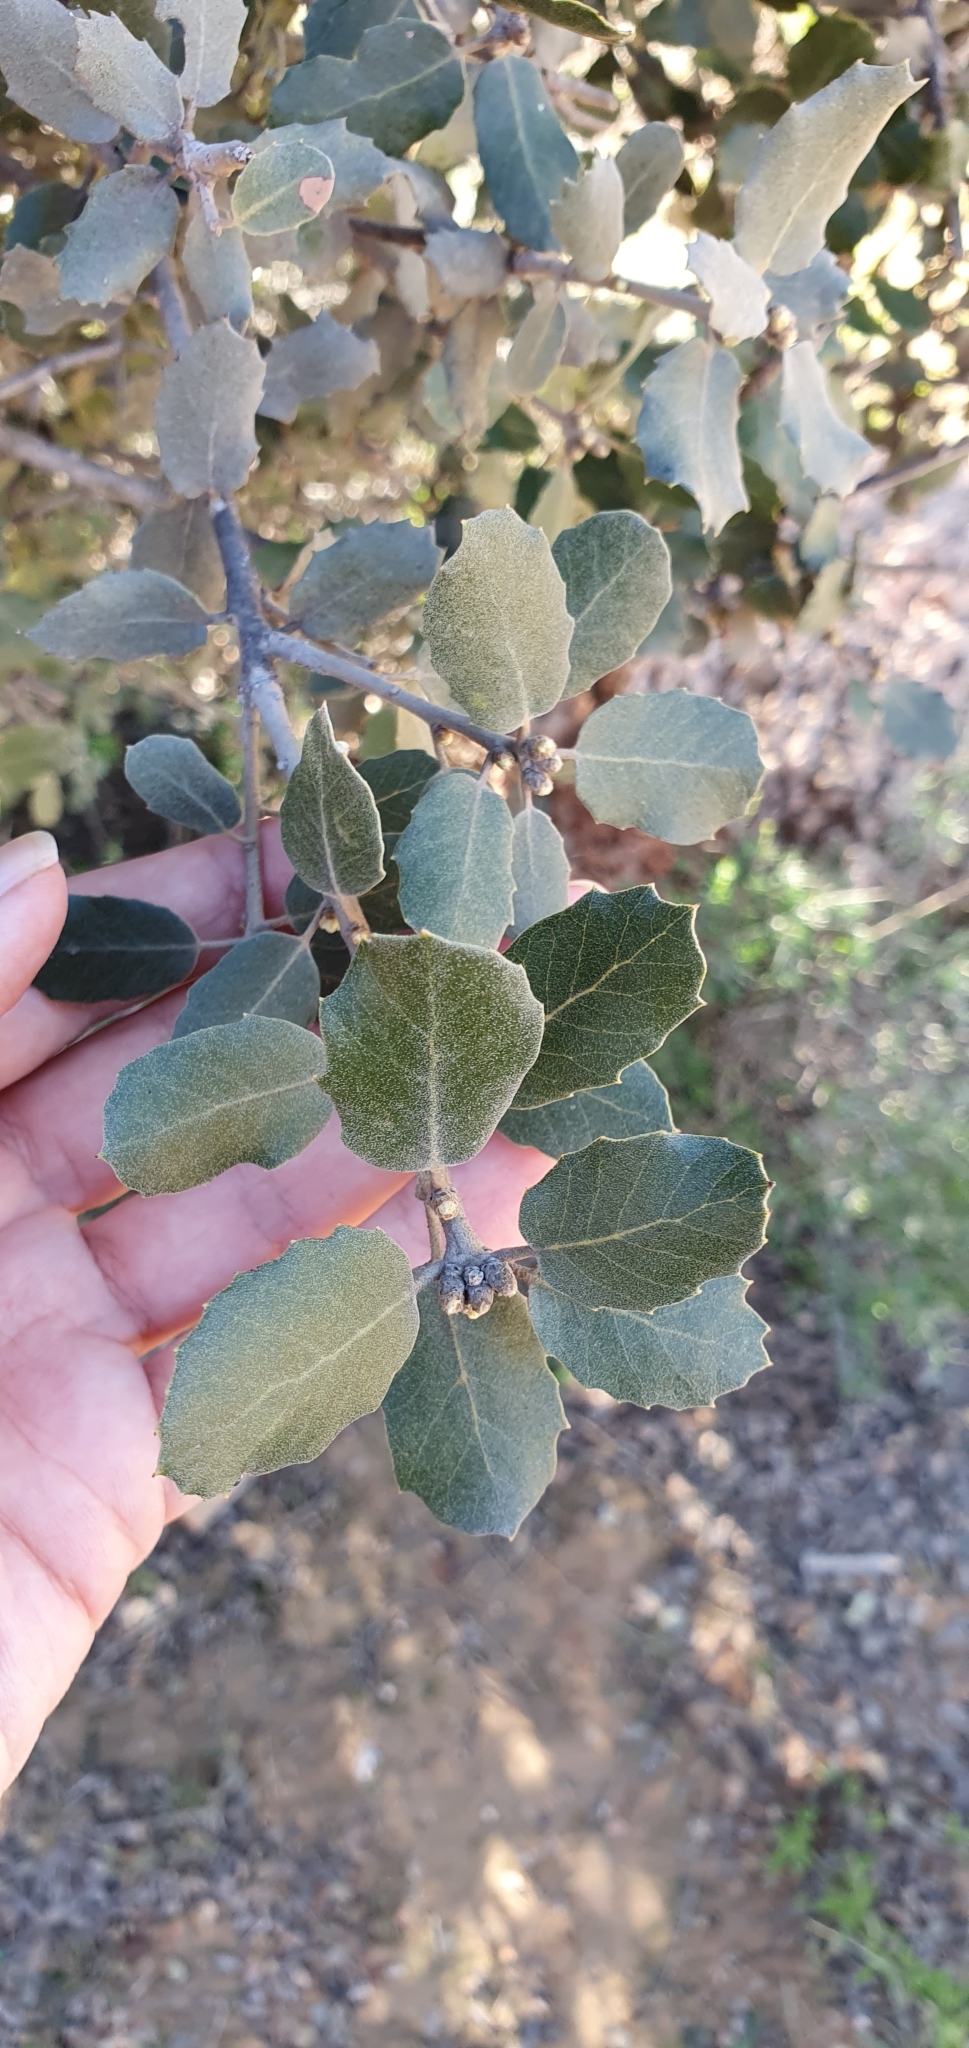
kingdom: Plantae
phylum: Tracheophyta
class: Magnoliopsida
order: Fagales
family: Fagaceae
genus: Quercus
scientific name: Quercus rotundifolia
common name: Holm oak
